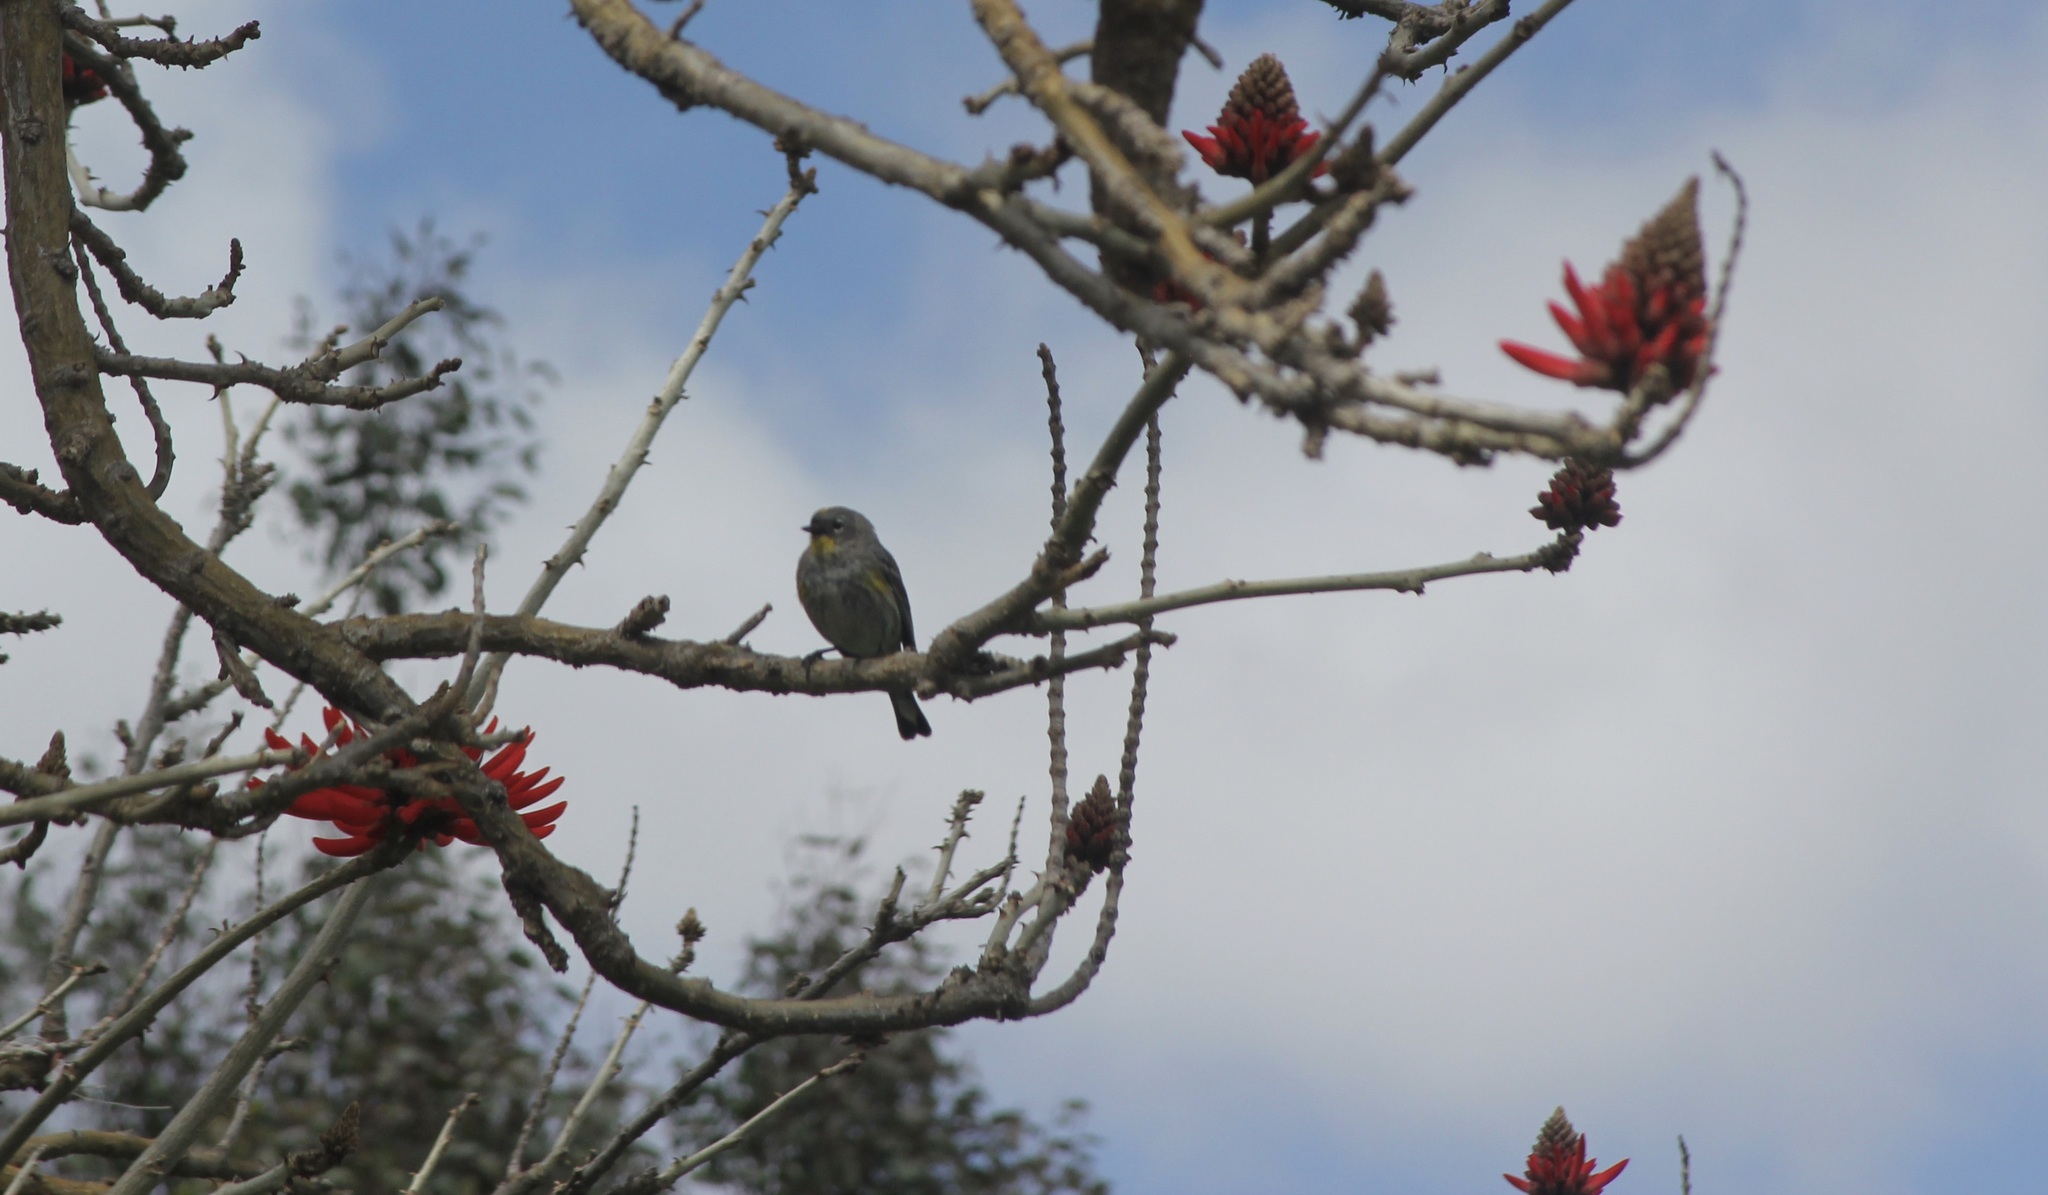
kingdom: Animalia
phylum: Chordata
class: Aves
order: Passeriformes
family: Parulidae
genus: Setophaga
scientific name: Setophaga coronata
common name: Myrtle warbler
